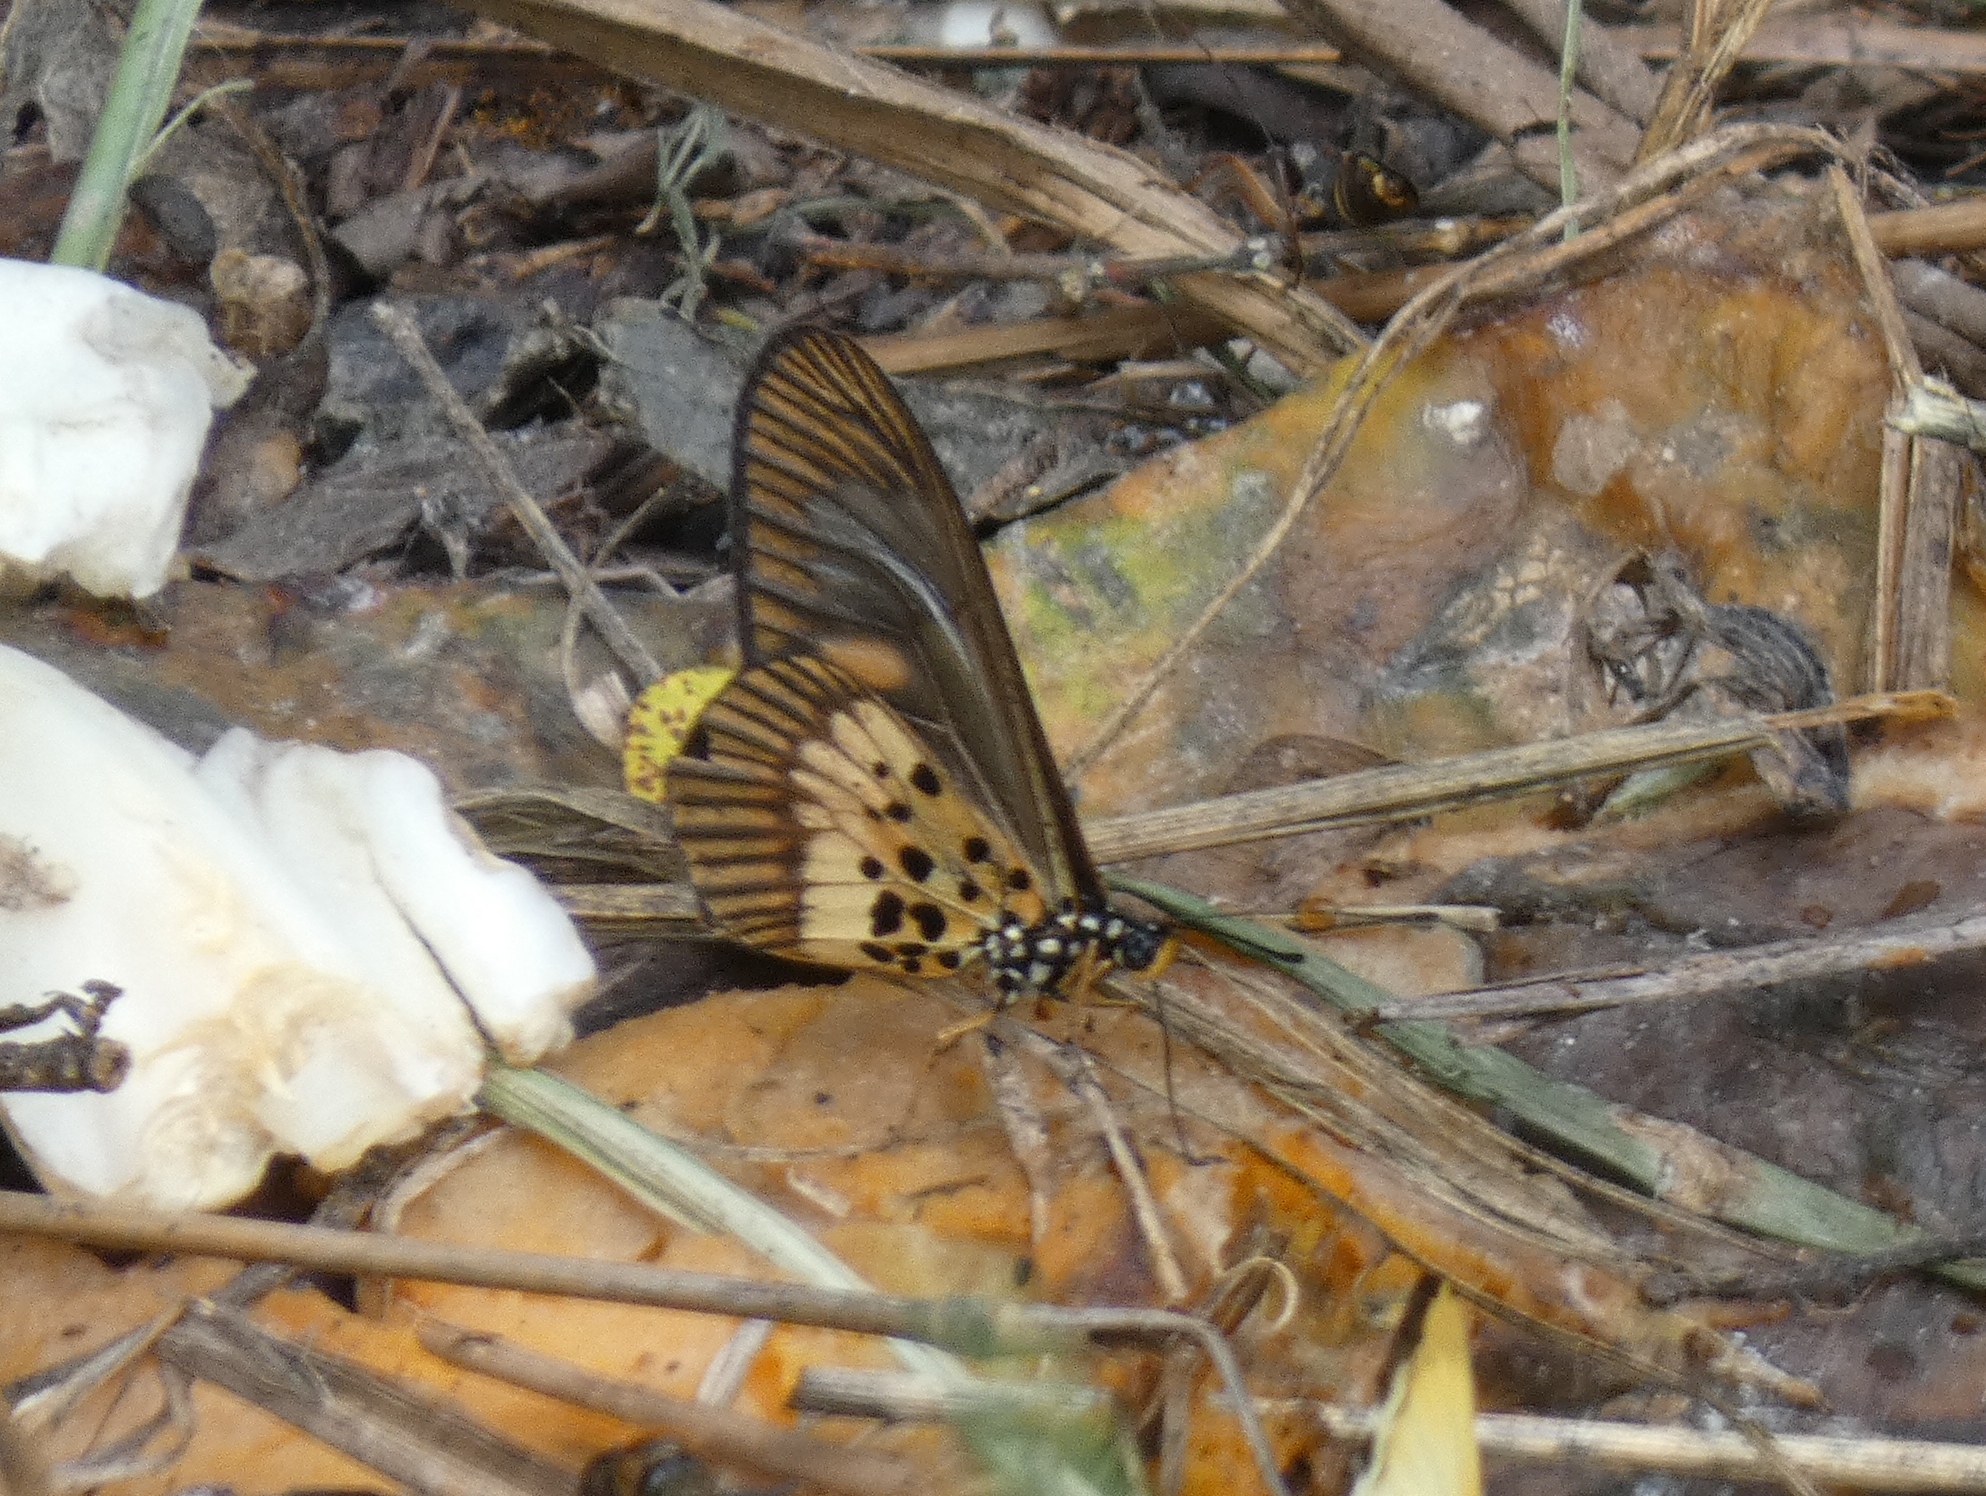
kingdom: Animalia
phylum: Arthropoda
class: Insecta
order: Lepidoptera
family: Nymphalidae
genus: Acraea
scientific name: Acraea
